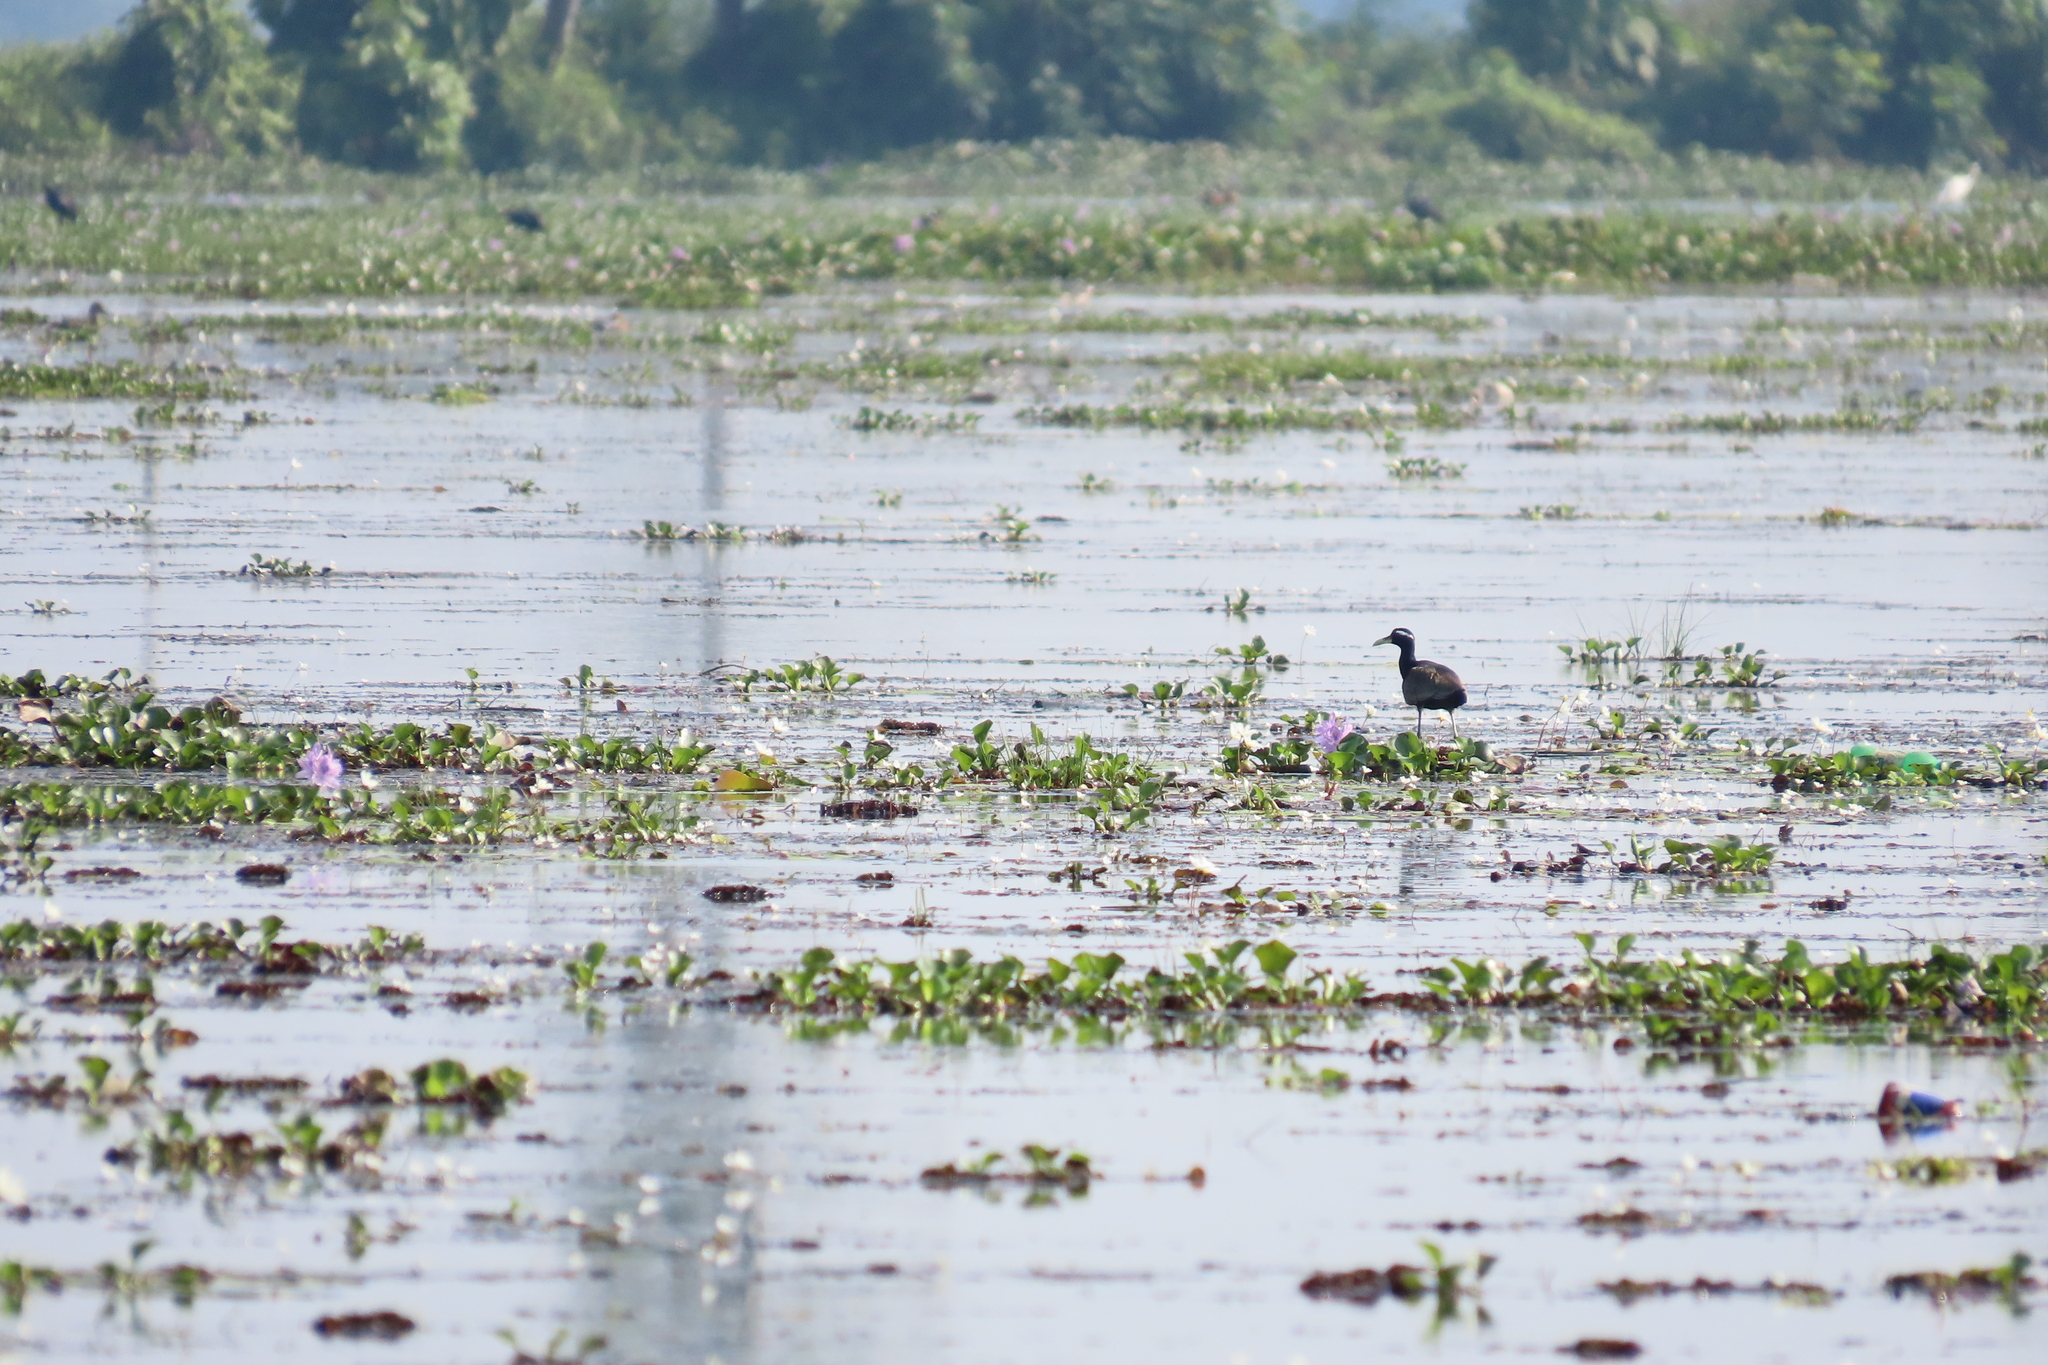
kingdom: Animalia
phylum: Chordata
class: Aves
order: Charadriiformes
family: Jacanidae
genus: Metopidius
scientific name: Metopidius indicus
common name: Bronze-winged jacana
